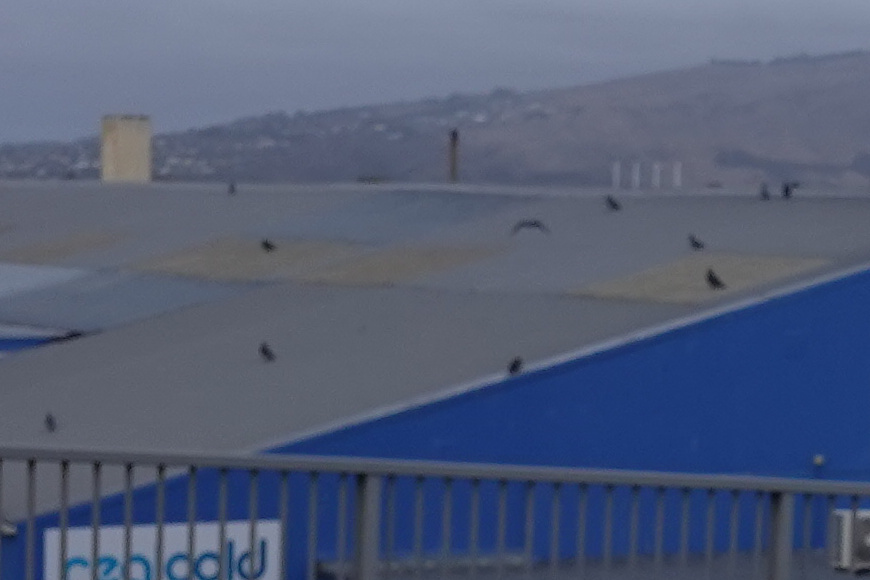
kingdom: Animalia
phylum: Chordata
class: Aves
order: Columbiformes
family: Columbidae
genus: Columba
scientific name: Columba livia
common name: Rock pigeon
